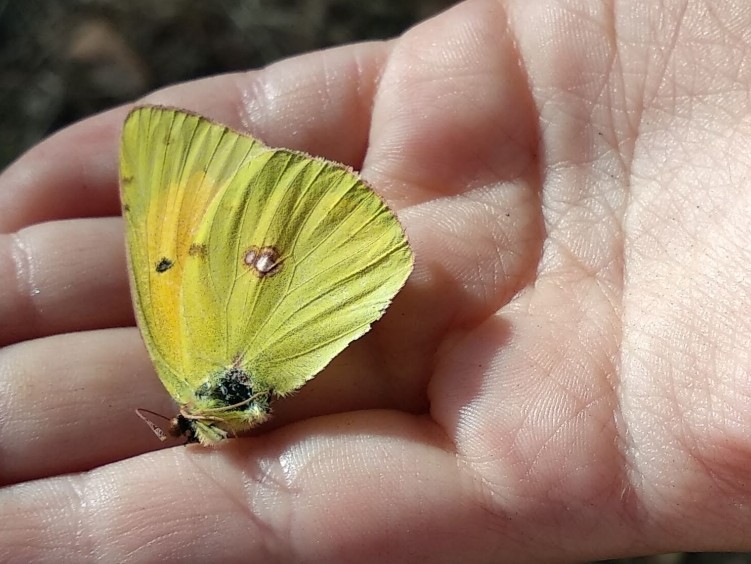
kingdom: Animalia
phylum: Arthropoda
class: Insecta
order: Lepidoptera
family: Pieridae
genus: Colias
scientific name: Colias myrmidone
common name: Danube clouded yellow
